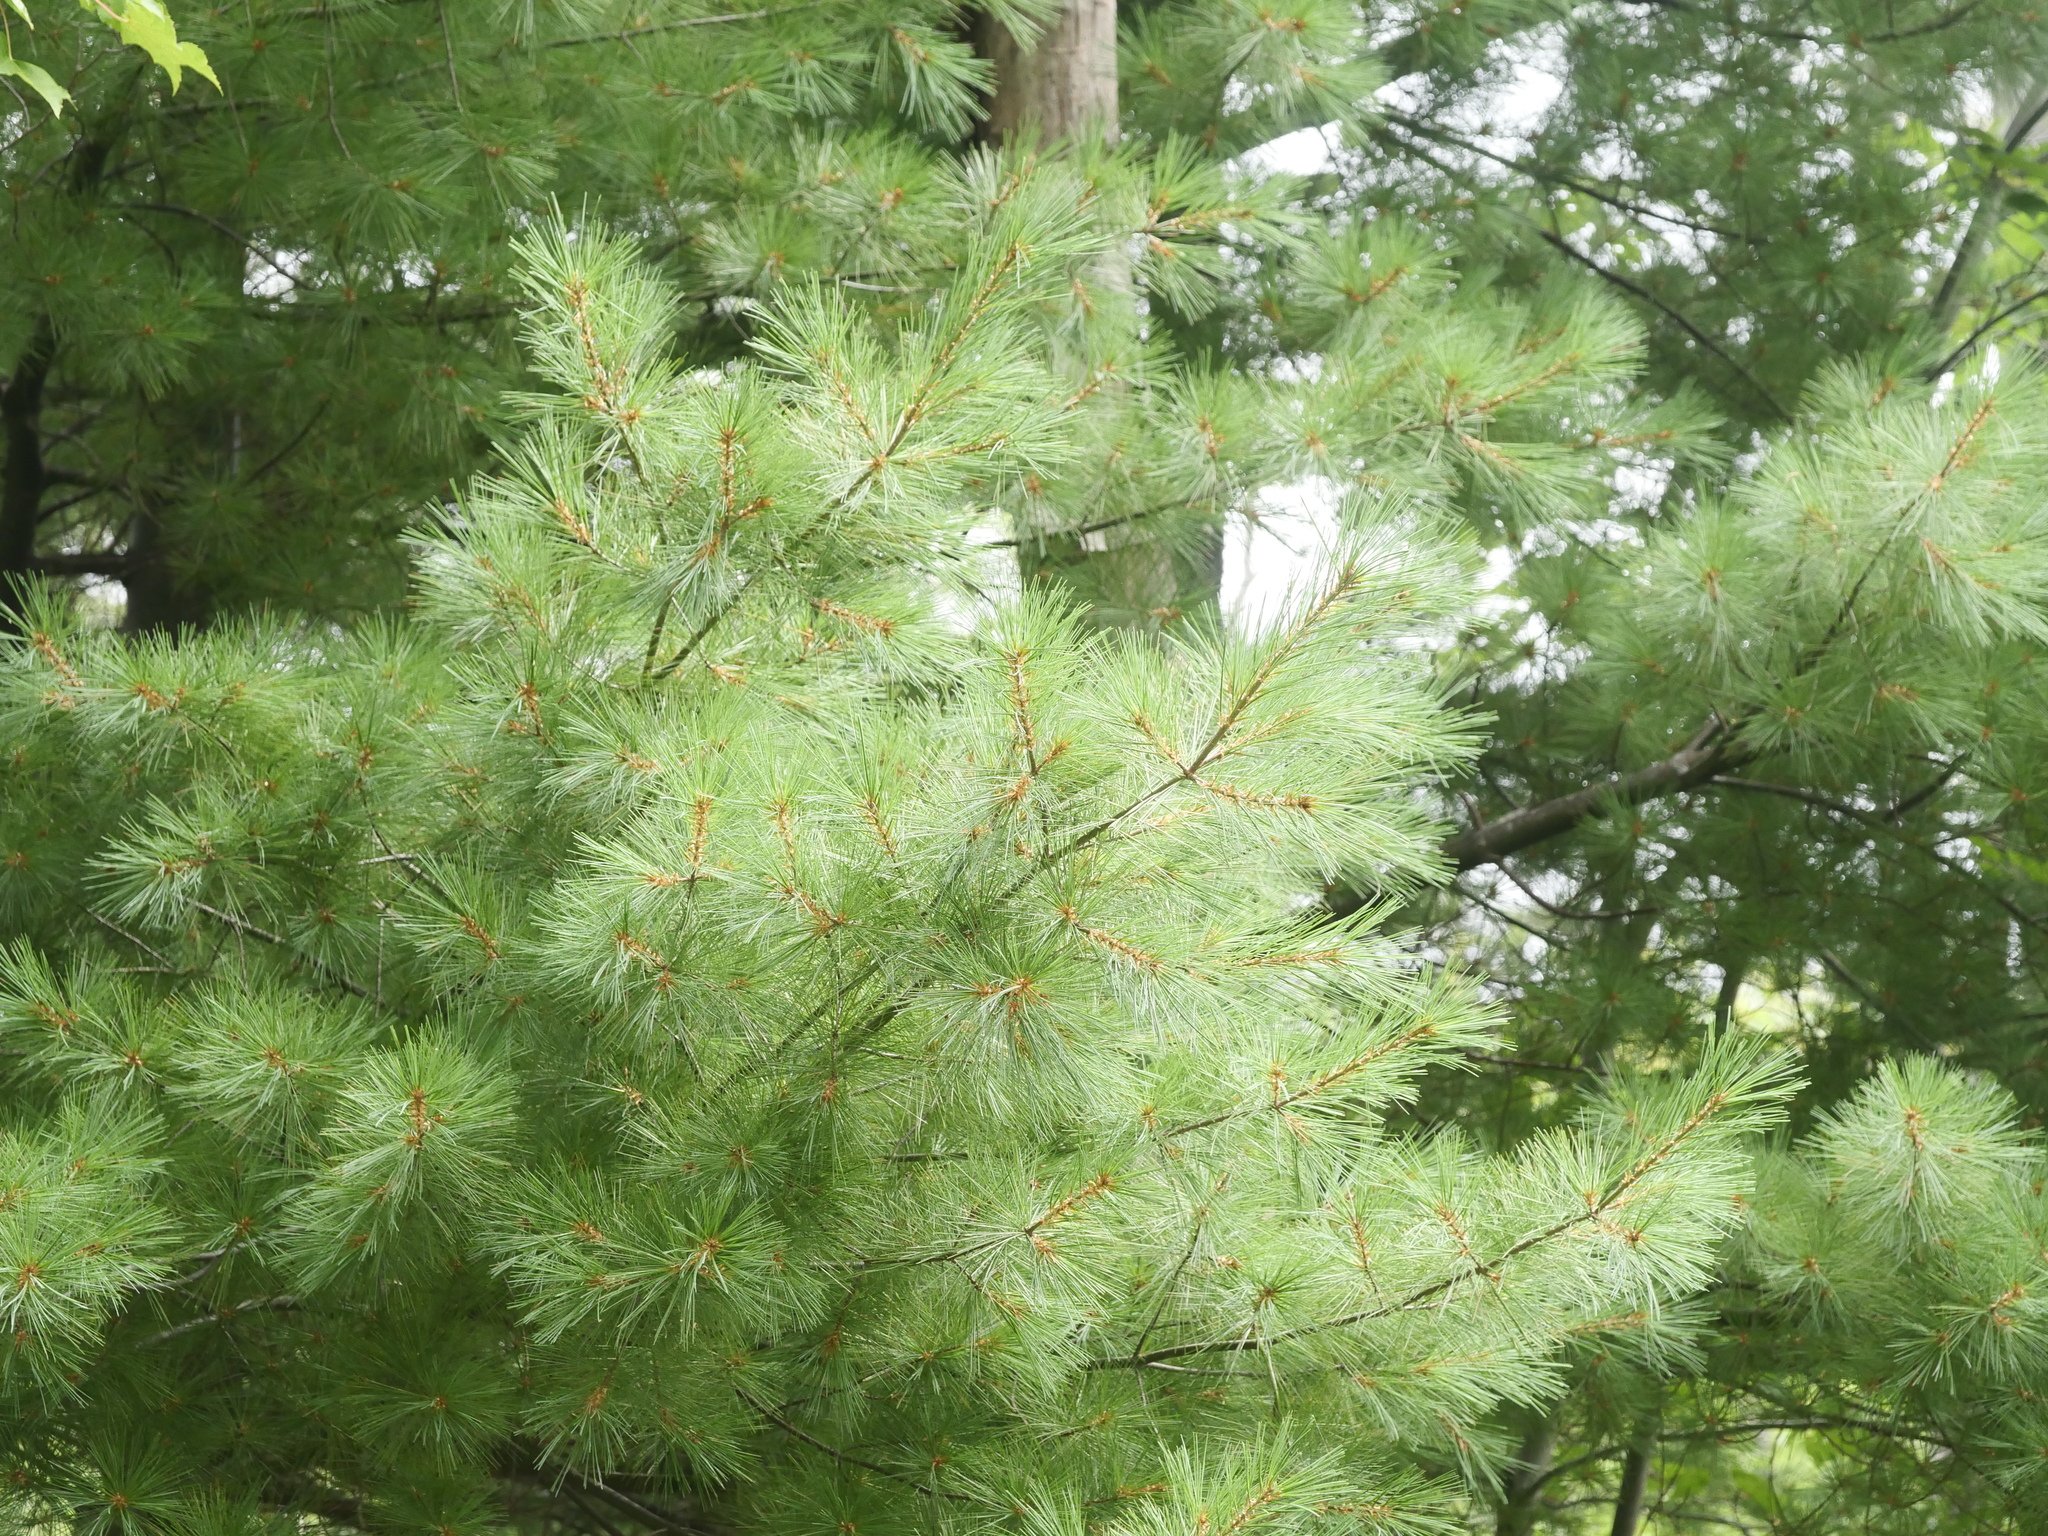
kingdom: Plantae
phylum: Tracheophyta
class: Pinopsida
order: Pinales
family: Pinaceae
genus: Pinus
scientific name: Pinus strobus
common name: Weymouth pine
